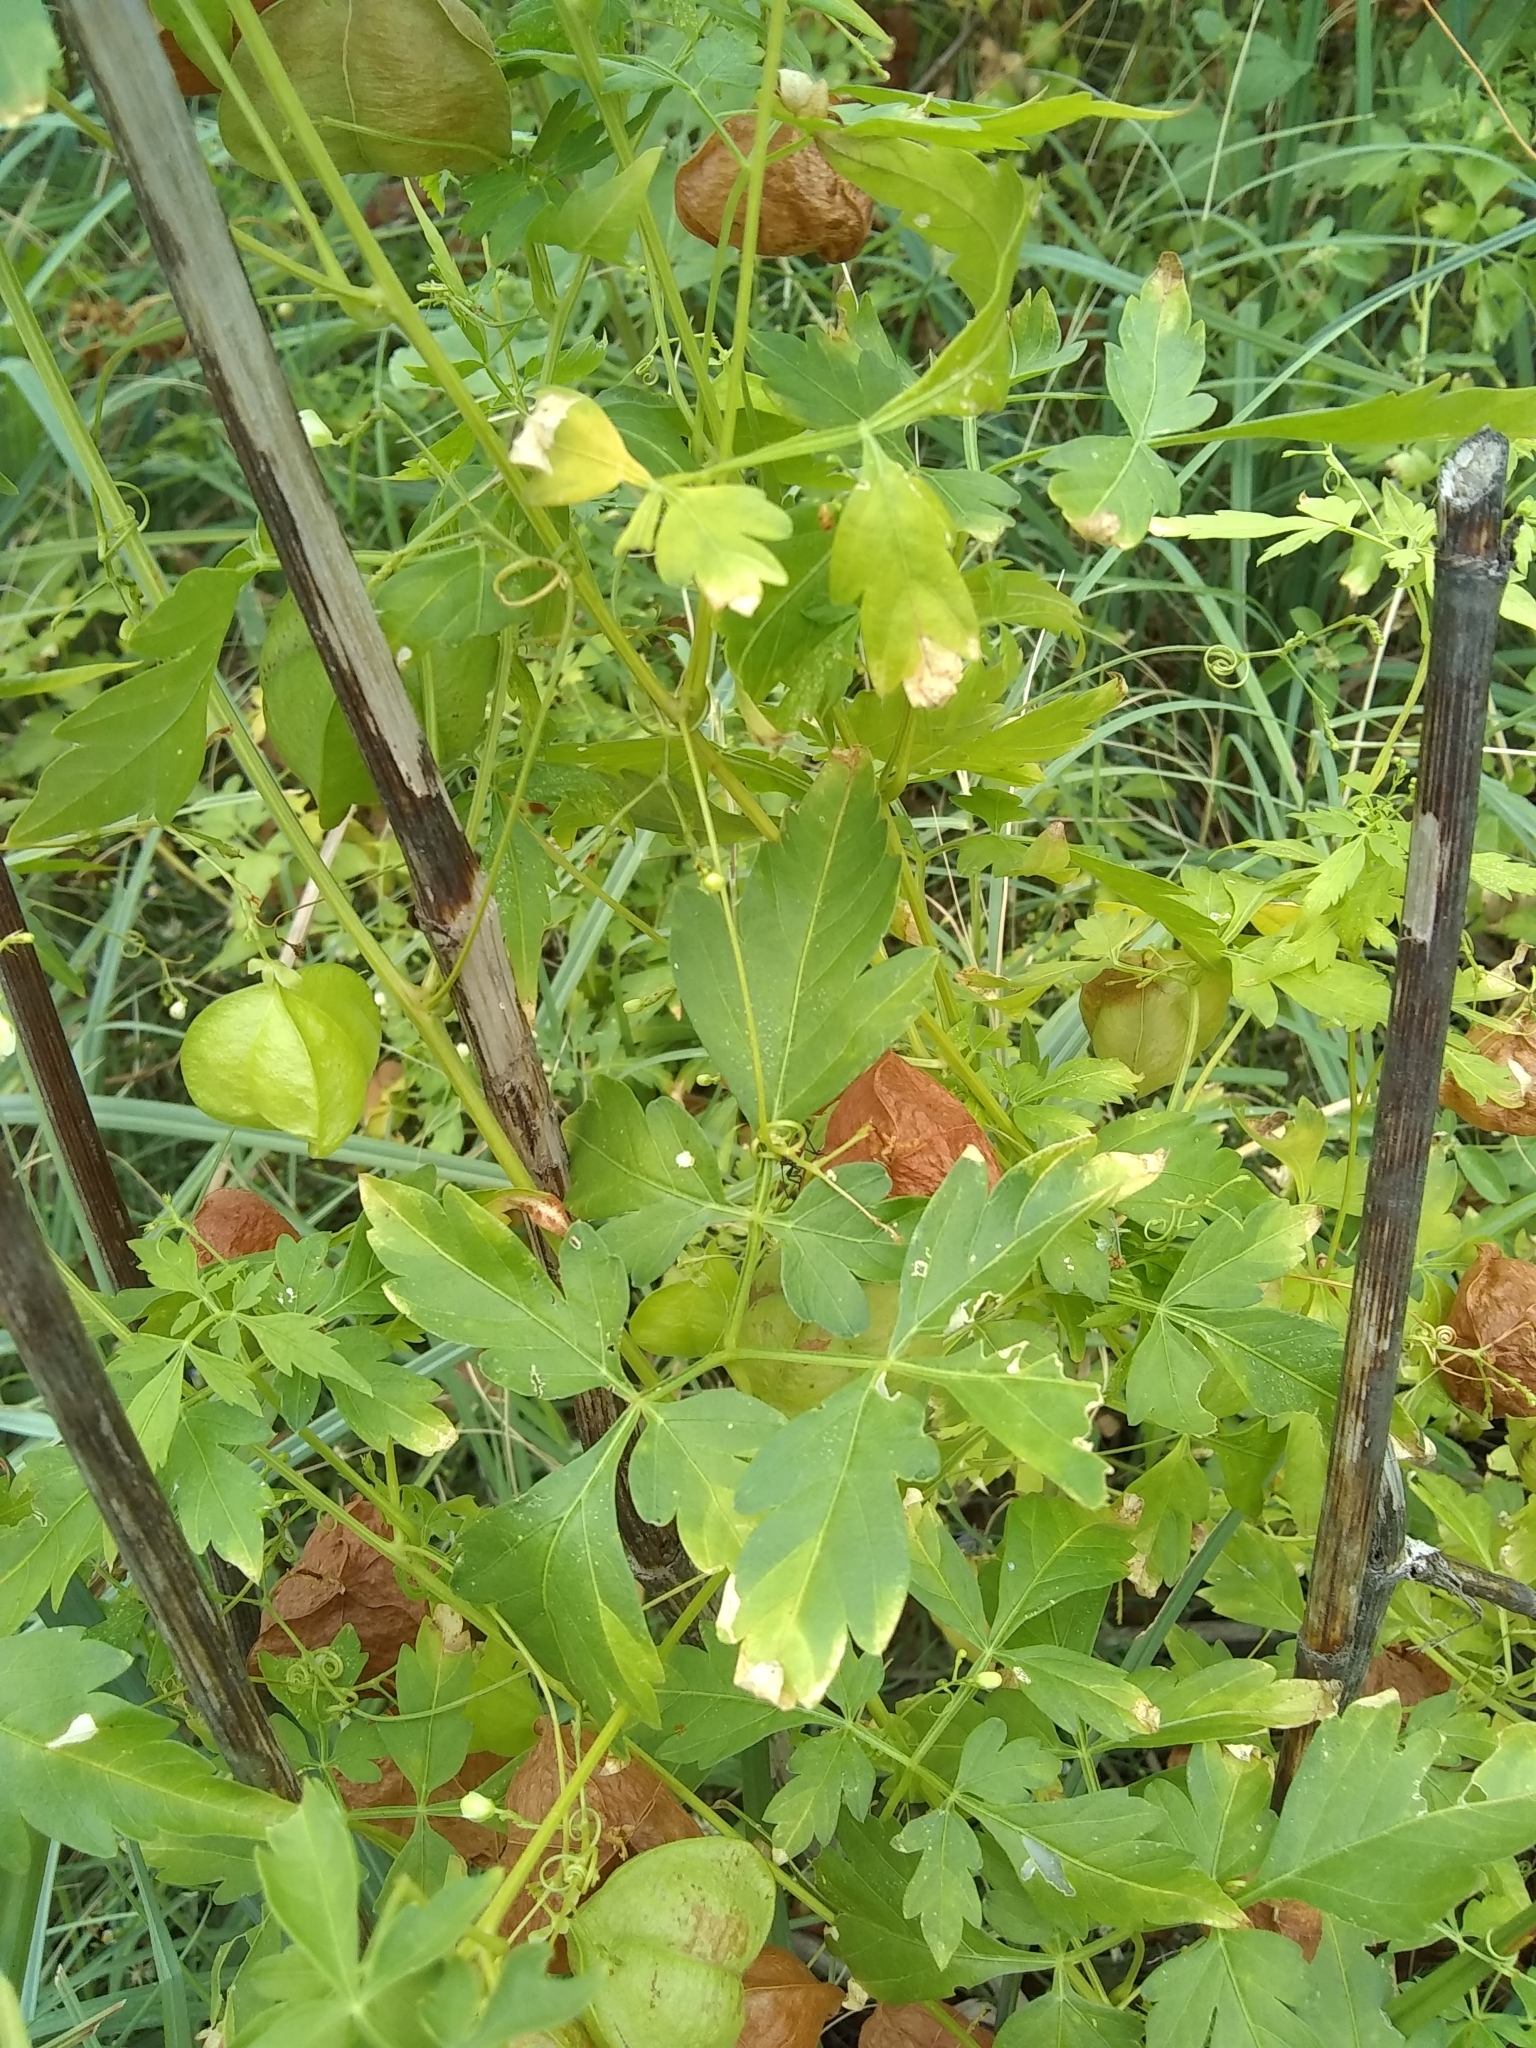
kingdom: Plantae
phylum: Tracheophyta
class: Magnoliopsida
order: Sapindales
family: Sapindaceae
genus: Cardiospermum
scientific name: Cardiospermum halicacabum
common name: Balloon vine
